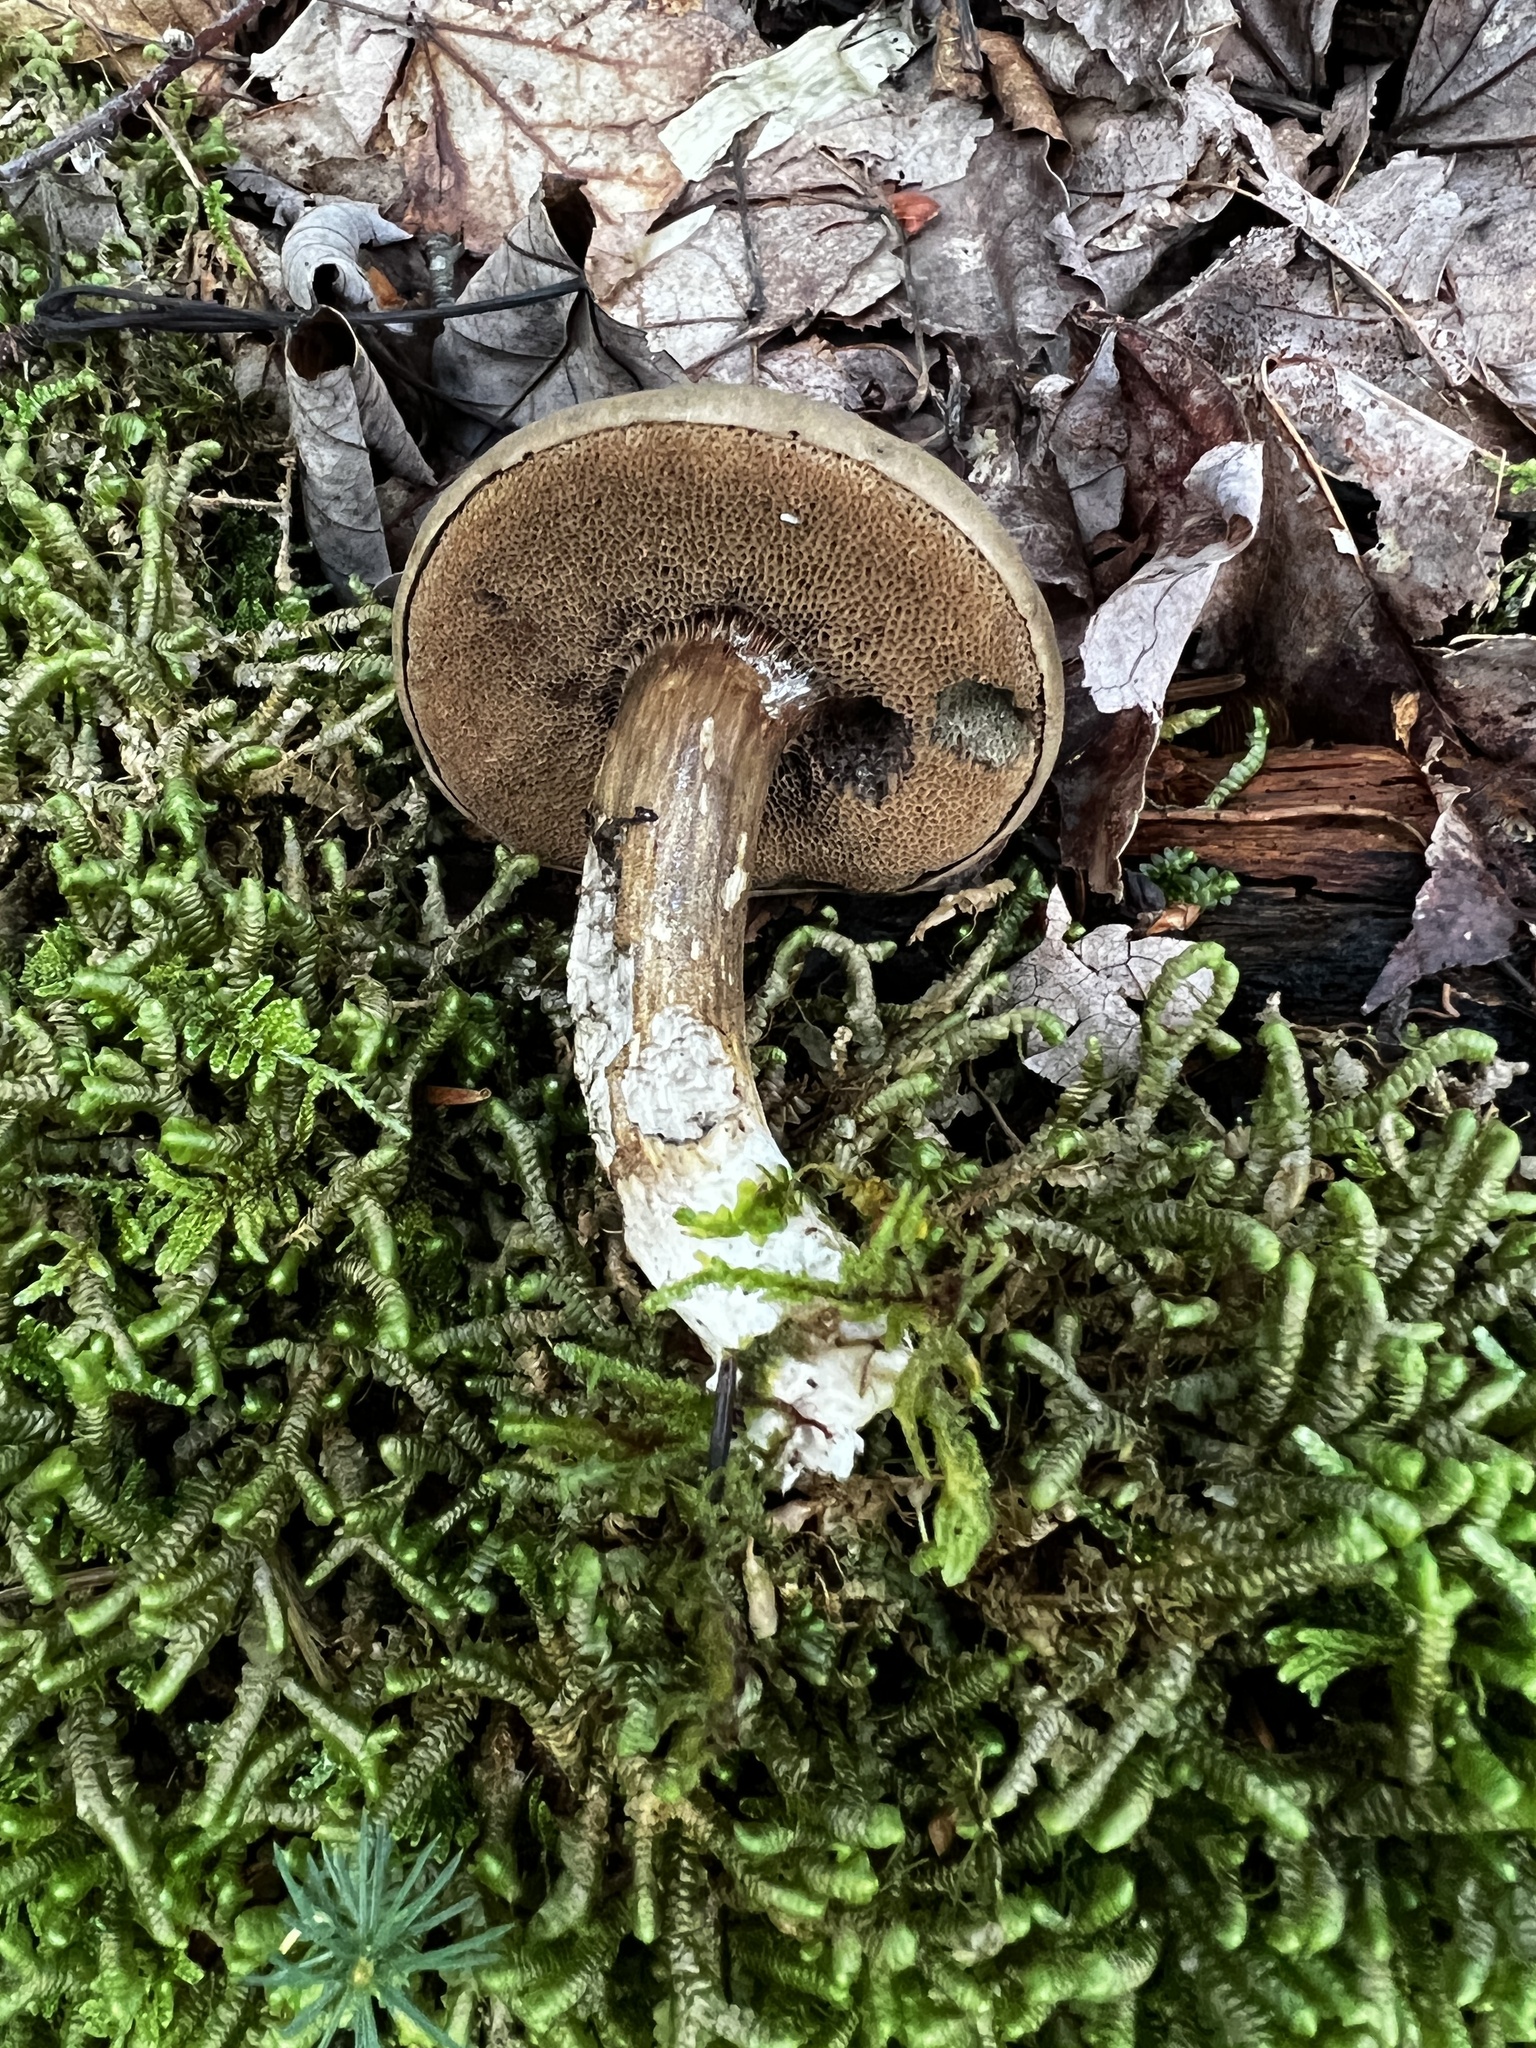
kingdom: Fungi
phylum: Basidiomycota
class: Agaricomycetes
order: Boletales
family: Boletaceae
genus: Porphyrellus
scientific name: Porphyrellus porphyrosporus
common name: Dusky bolete
